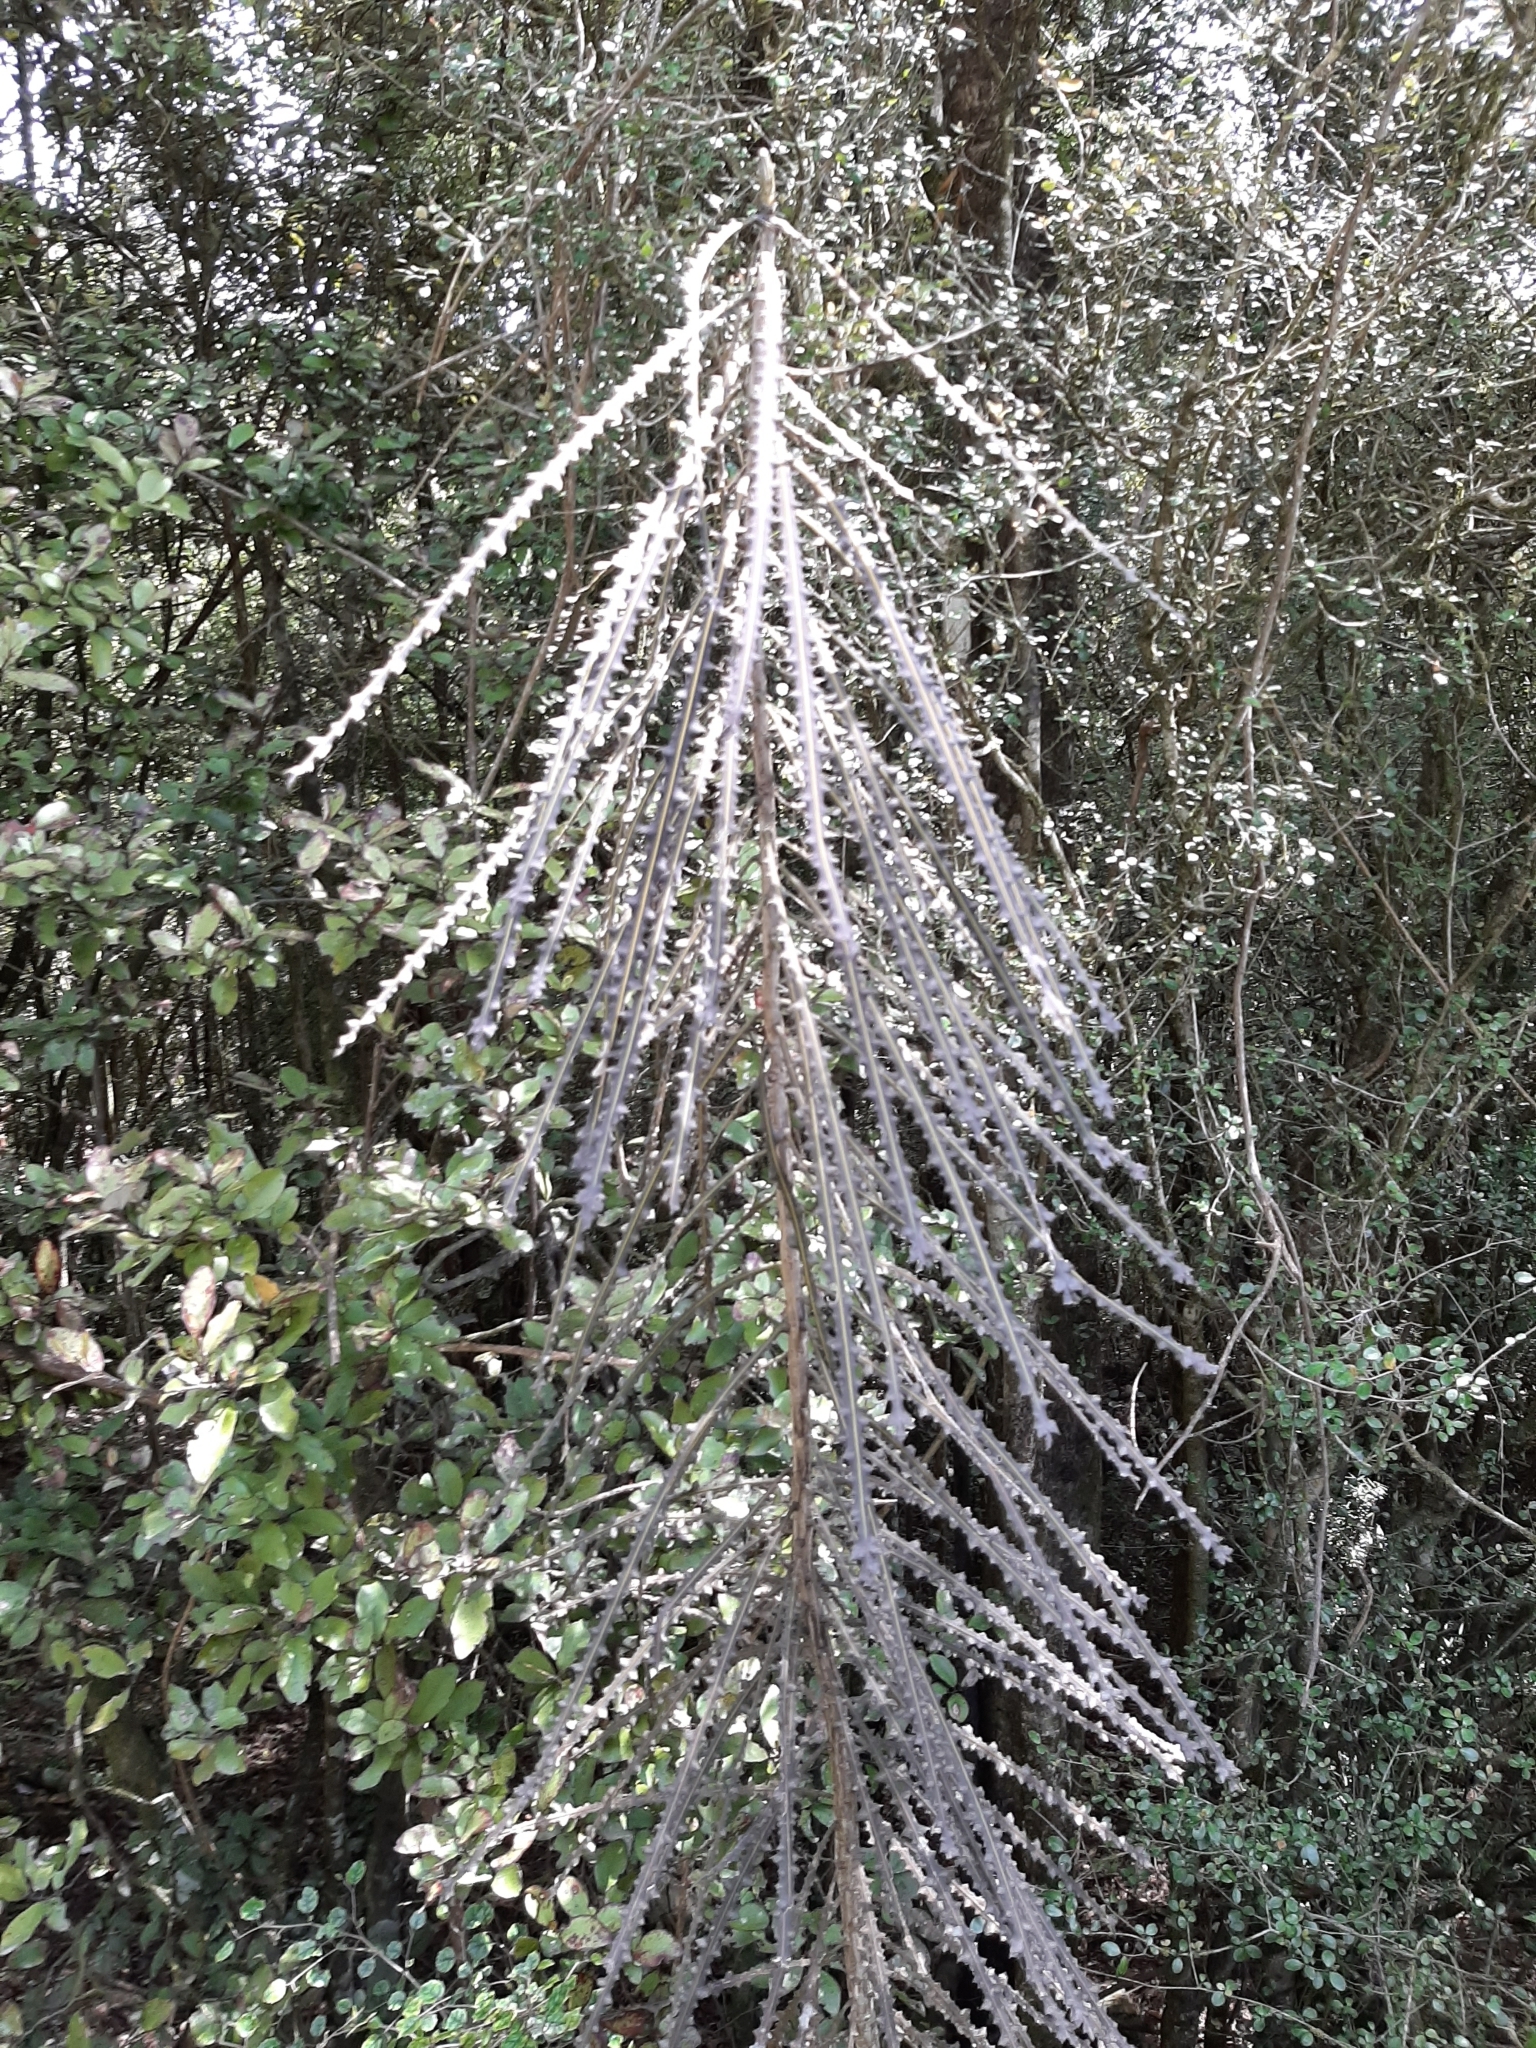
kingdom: Plantae
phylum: Tracheophyta
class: Magnoliopsida
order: Apiales
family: Araliaceae
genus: Pseudopanax
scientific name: Pseudopanax ferox
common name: Fierce lancewood
